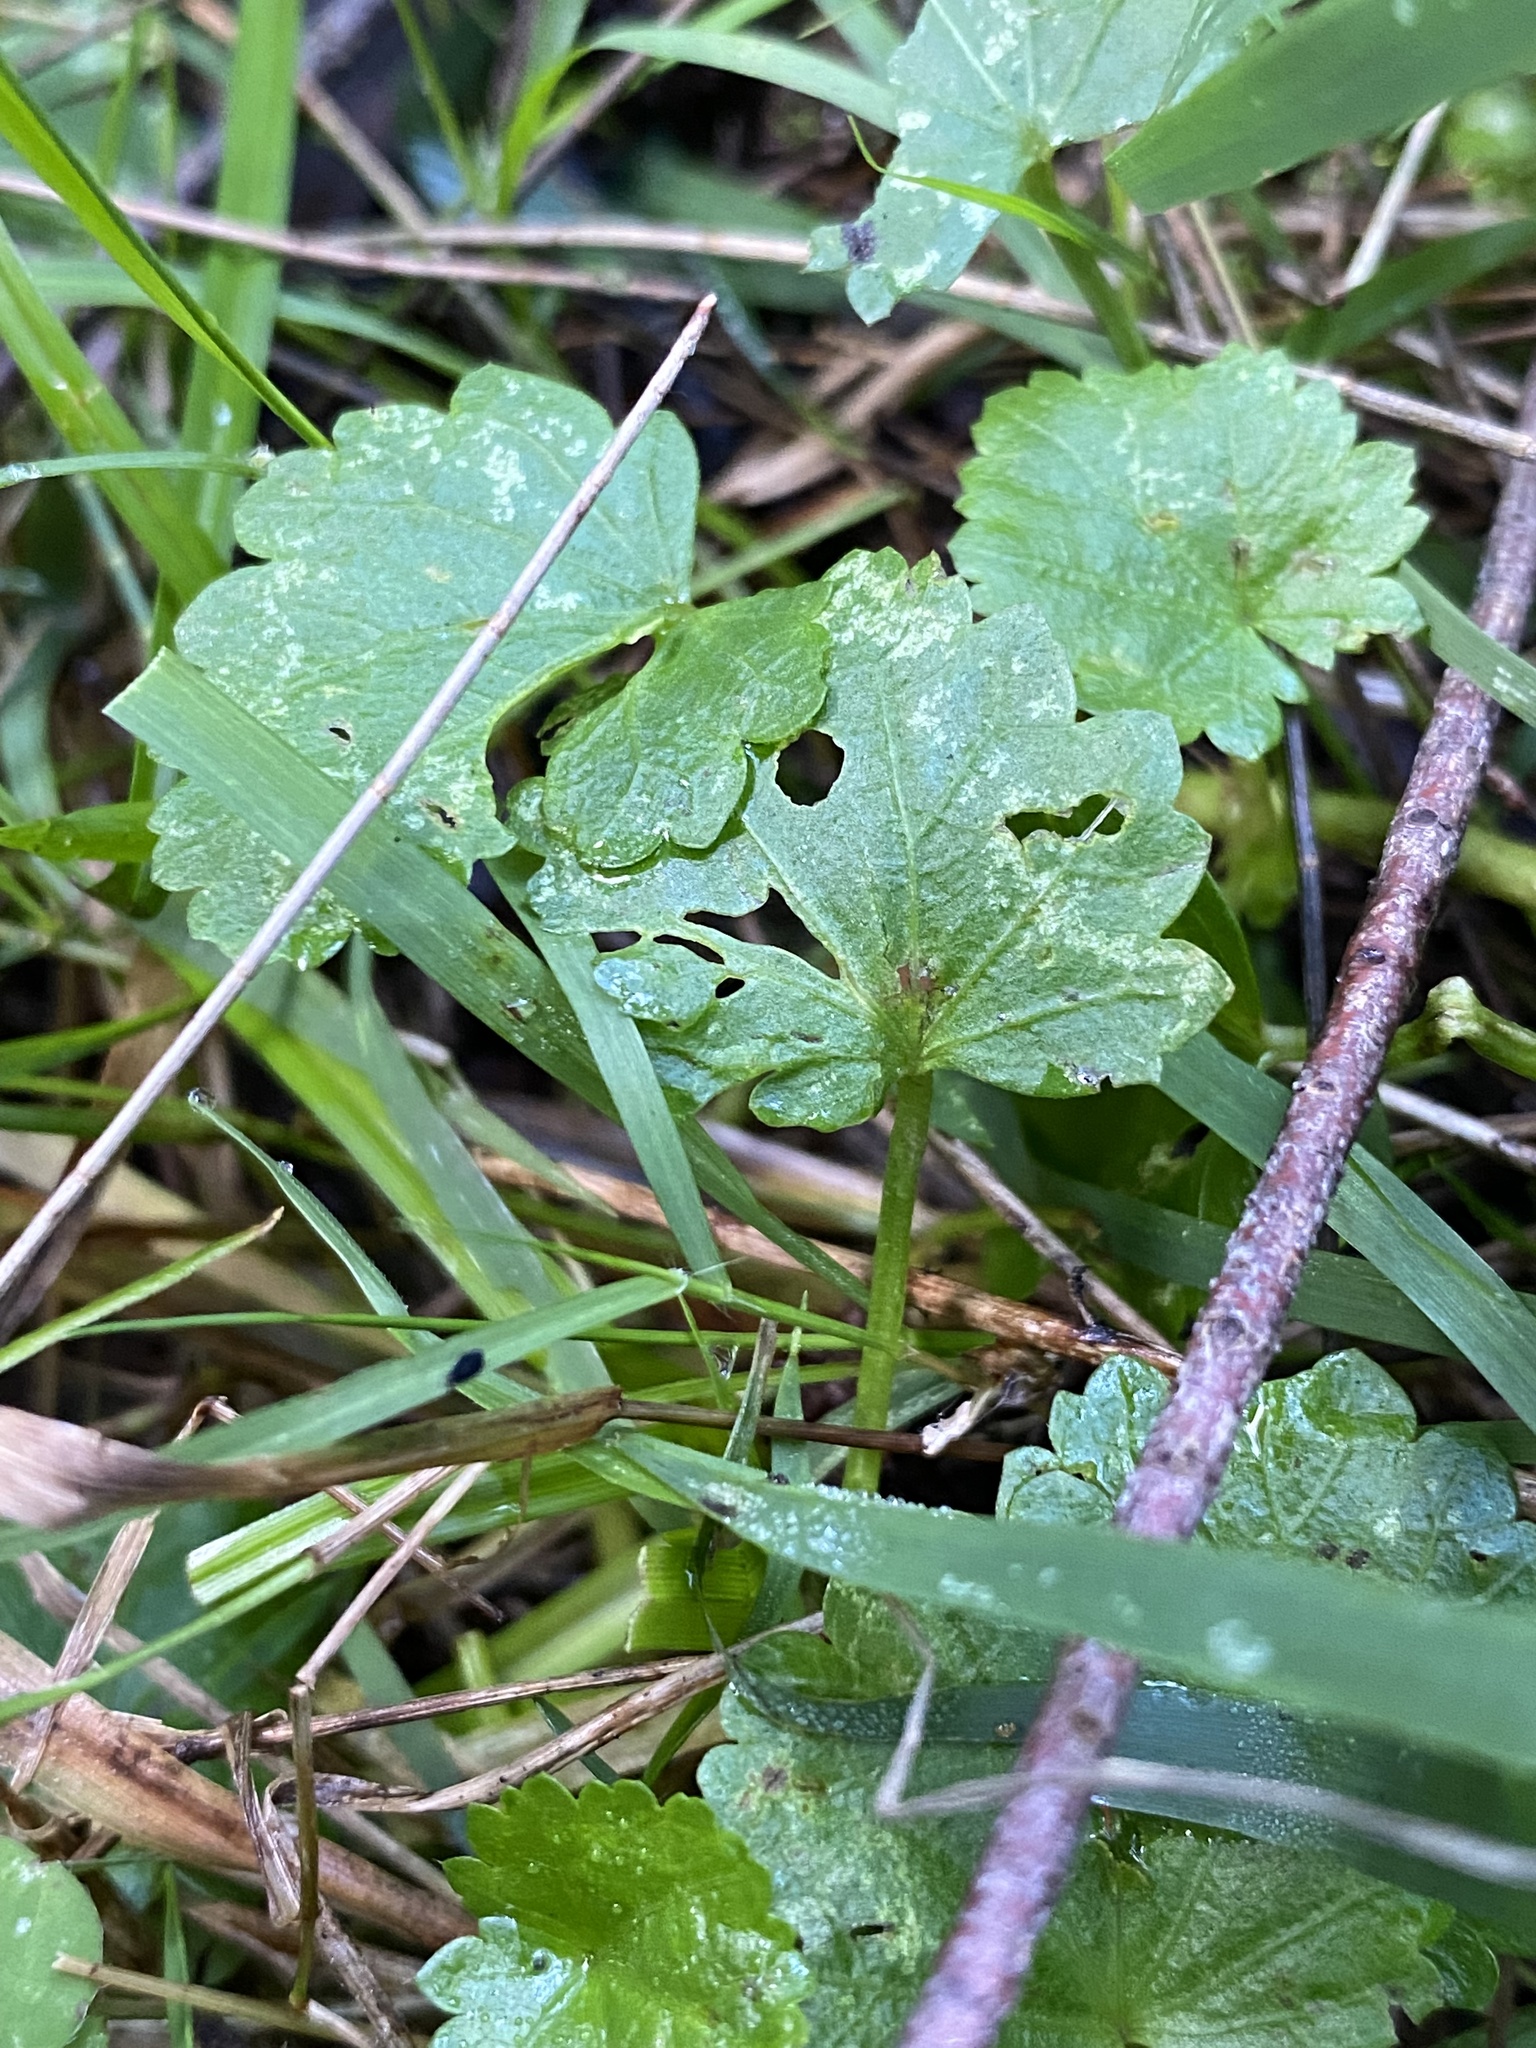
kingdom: Plantae
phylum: Tracheophyta
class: Magnoliopsida
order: Malvales
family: Malvaceae
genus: Modiola
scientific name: Modiola caroliniana
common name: Carolina bristlemallow
